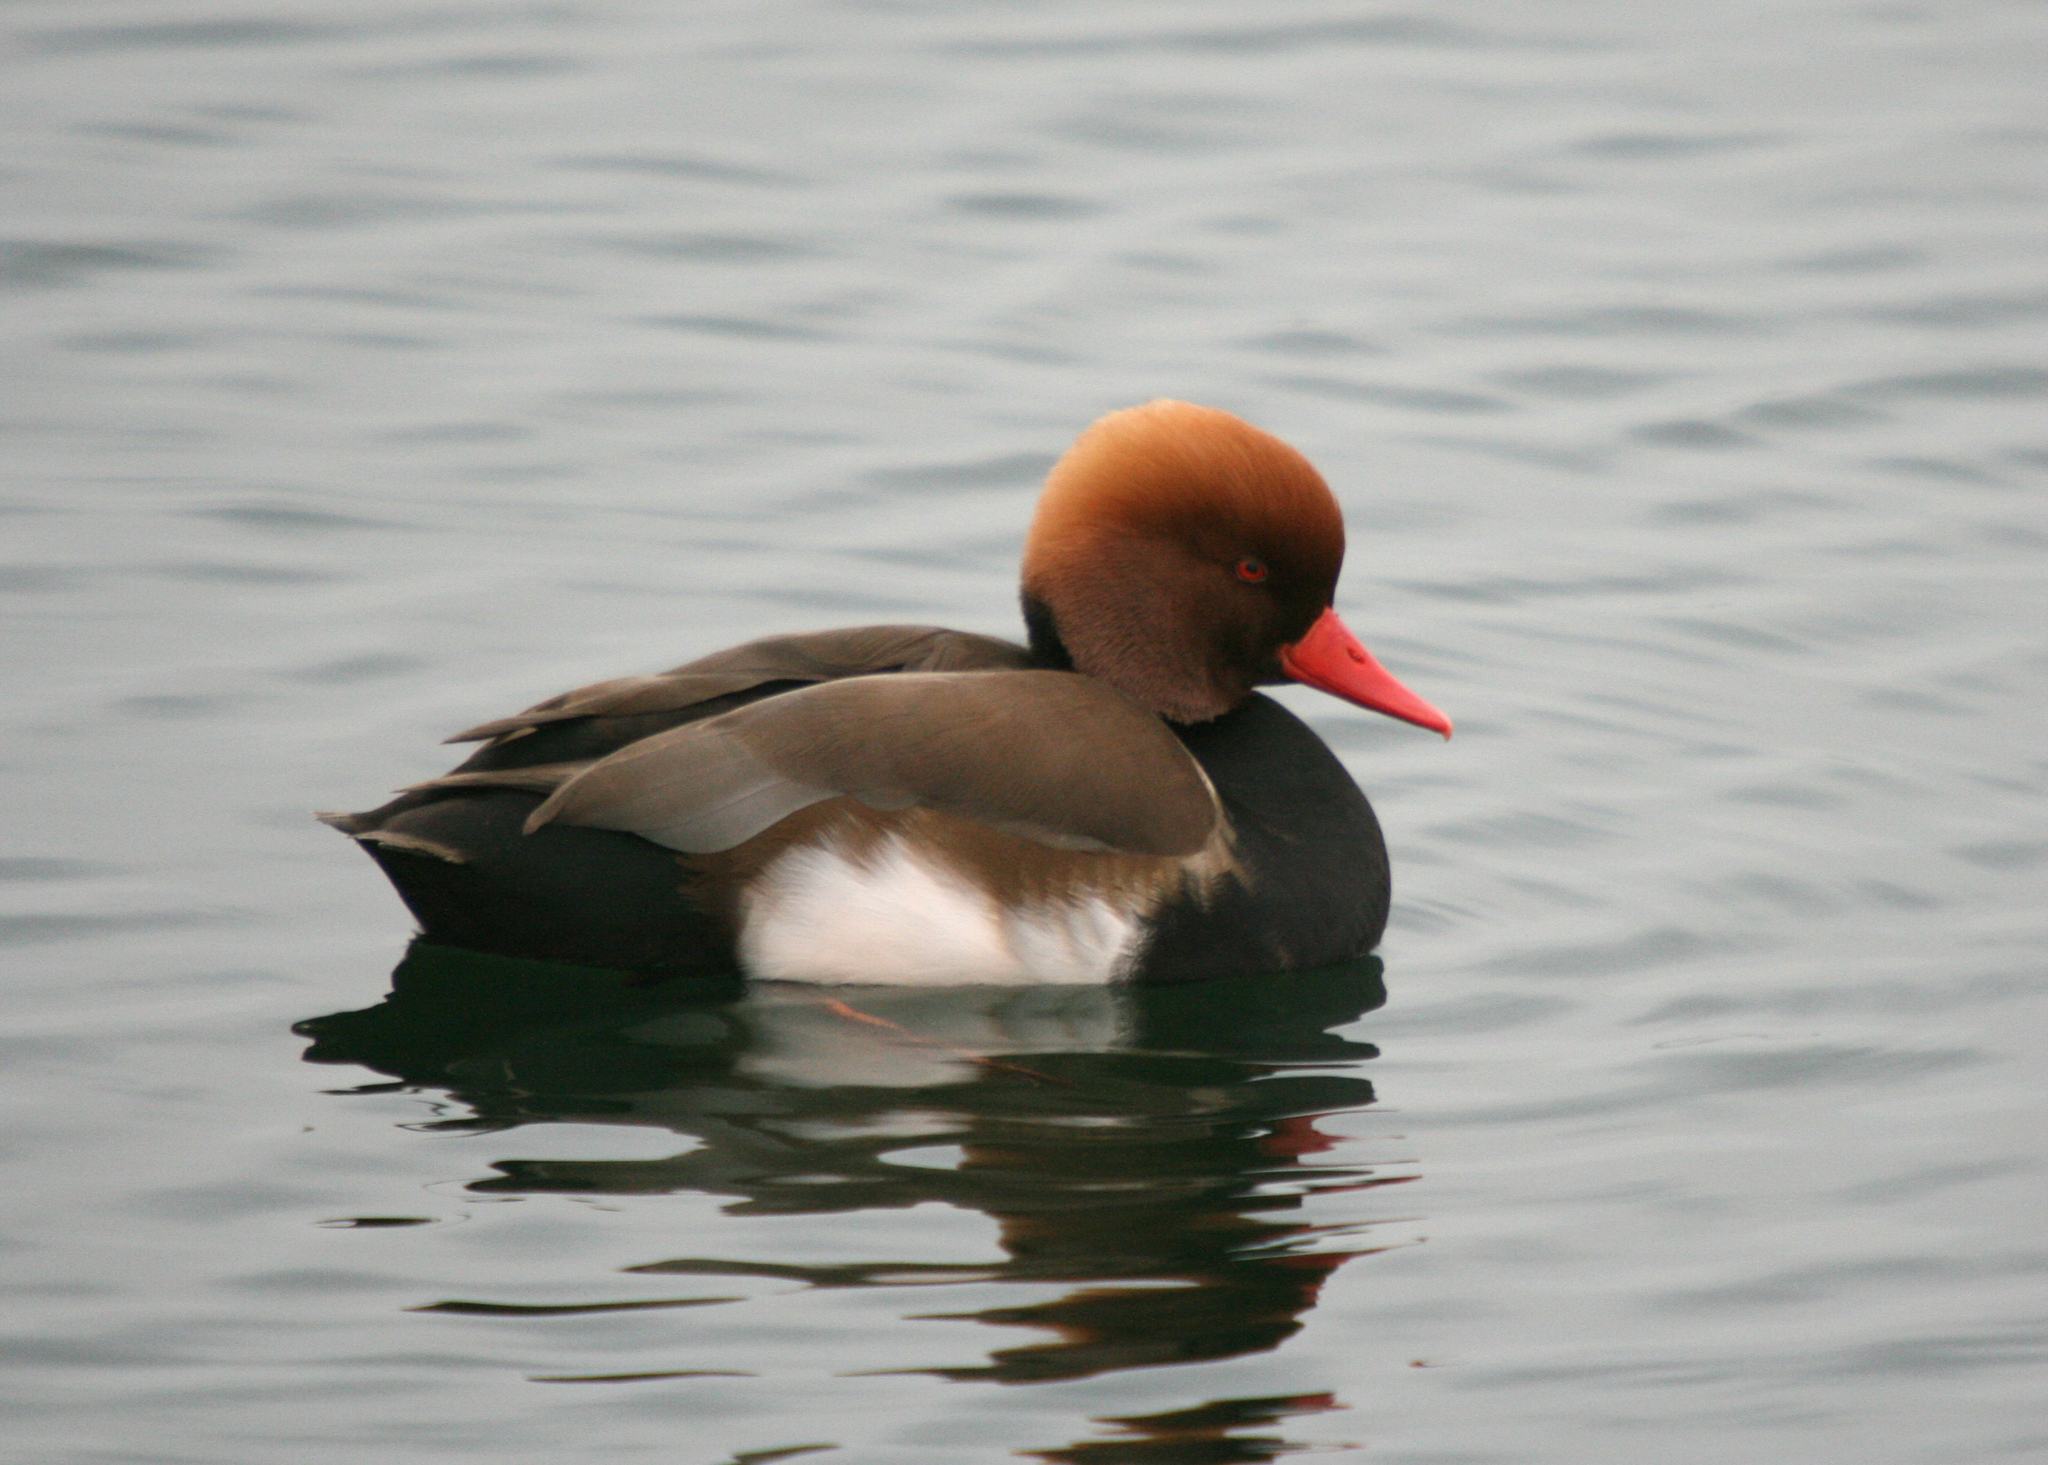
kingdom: Animalia
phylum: Chordata
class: Aves
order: Anseriformes
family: Anatidae
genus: Netta
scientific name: Netta rufina
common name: Red-crested pochard
